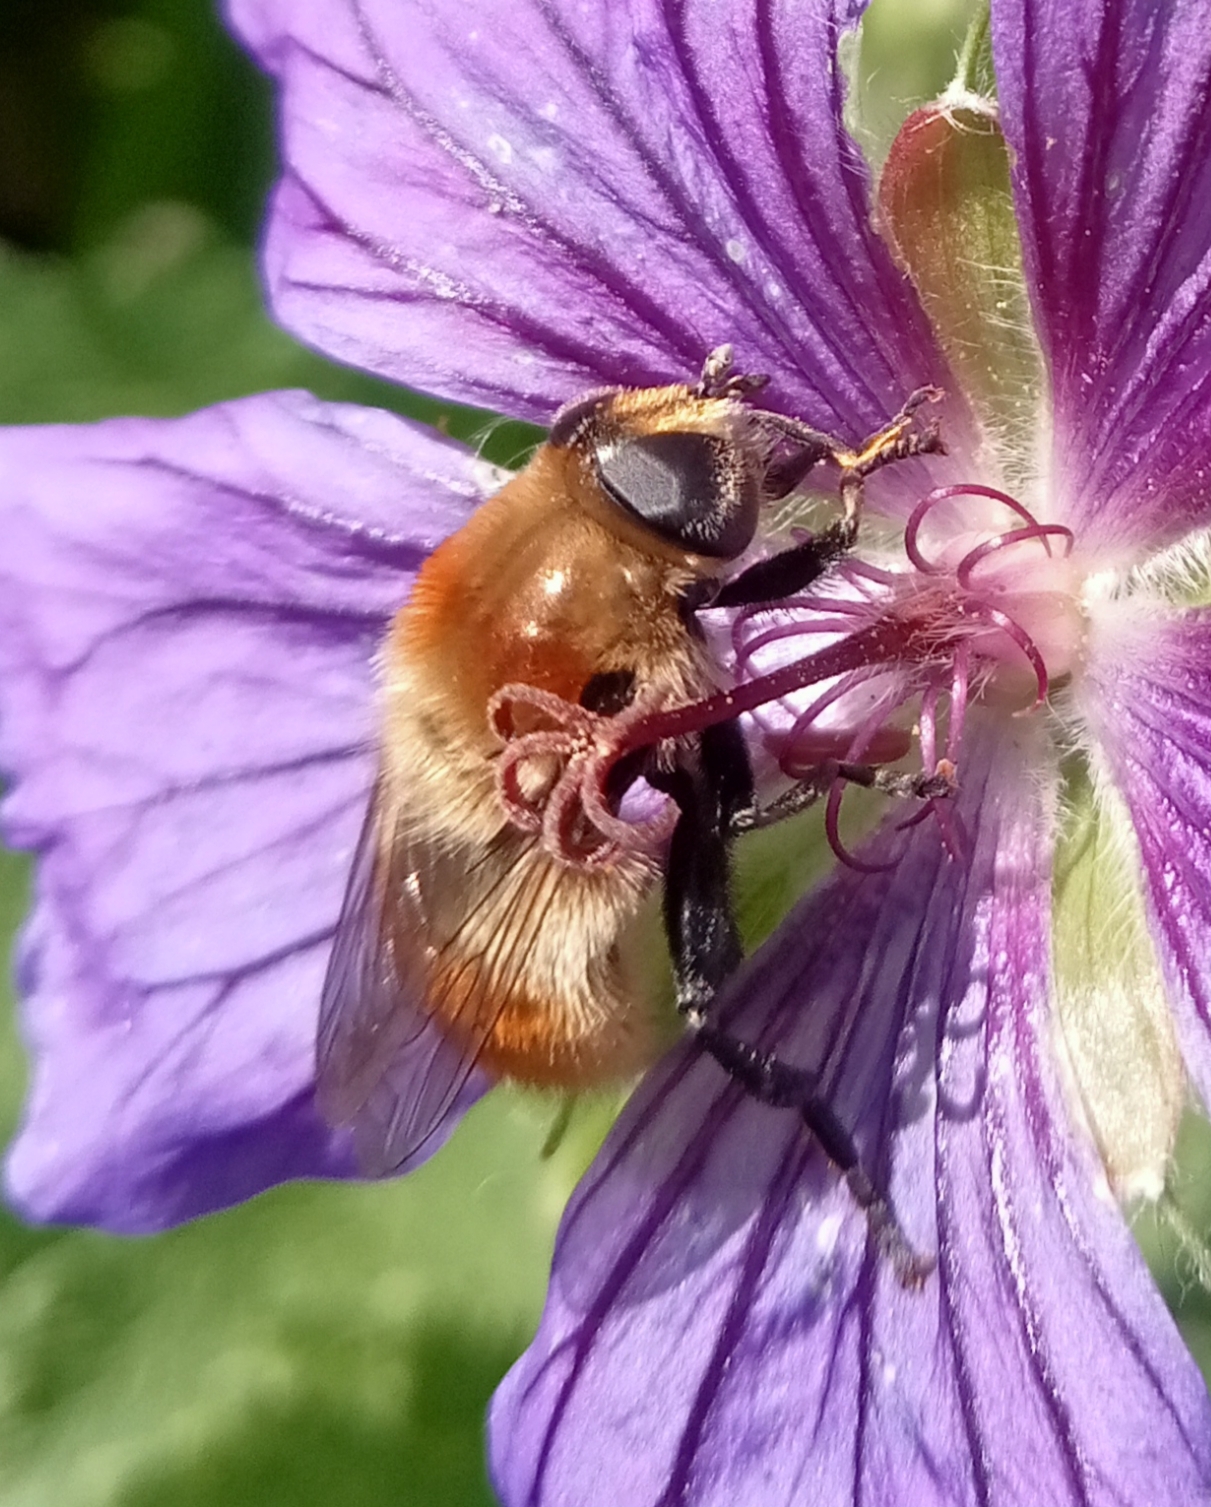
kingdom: Animalia
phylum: Arthropoda
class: Insecta
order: Diptera
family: Syrphidae
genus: Merodon
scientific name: Merodon equestris
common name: Greater bulb-fly
